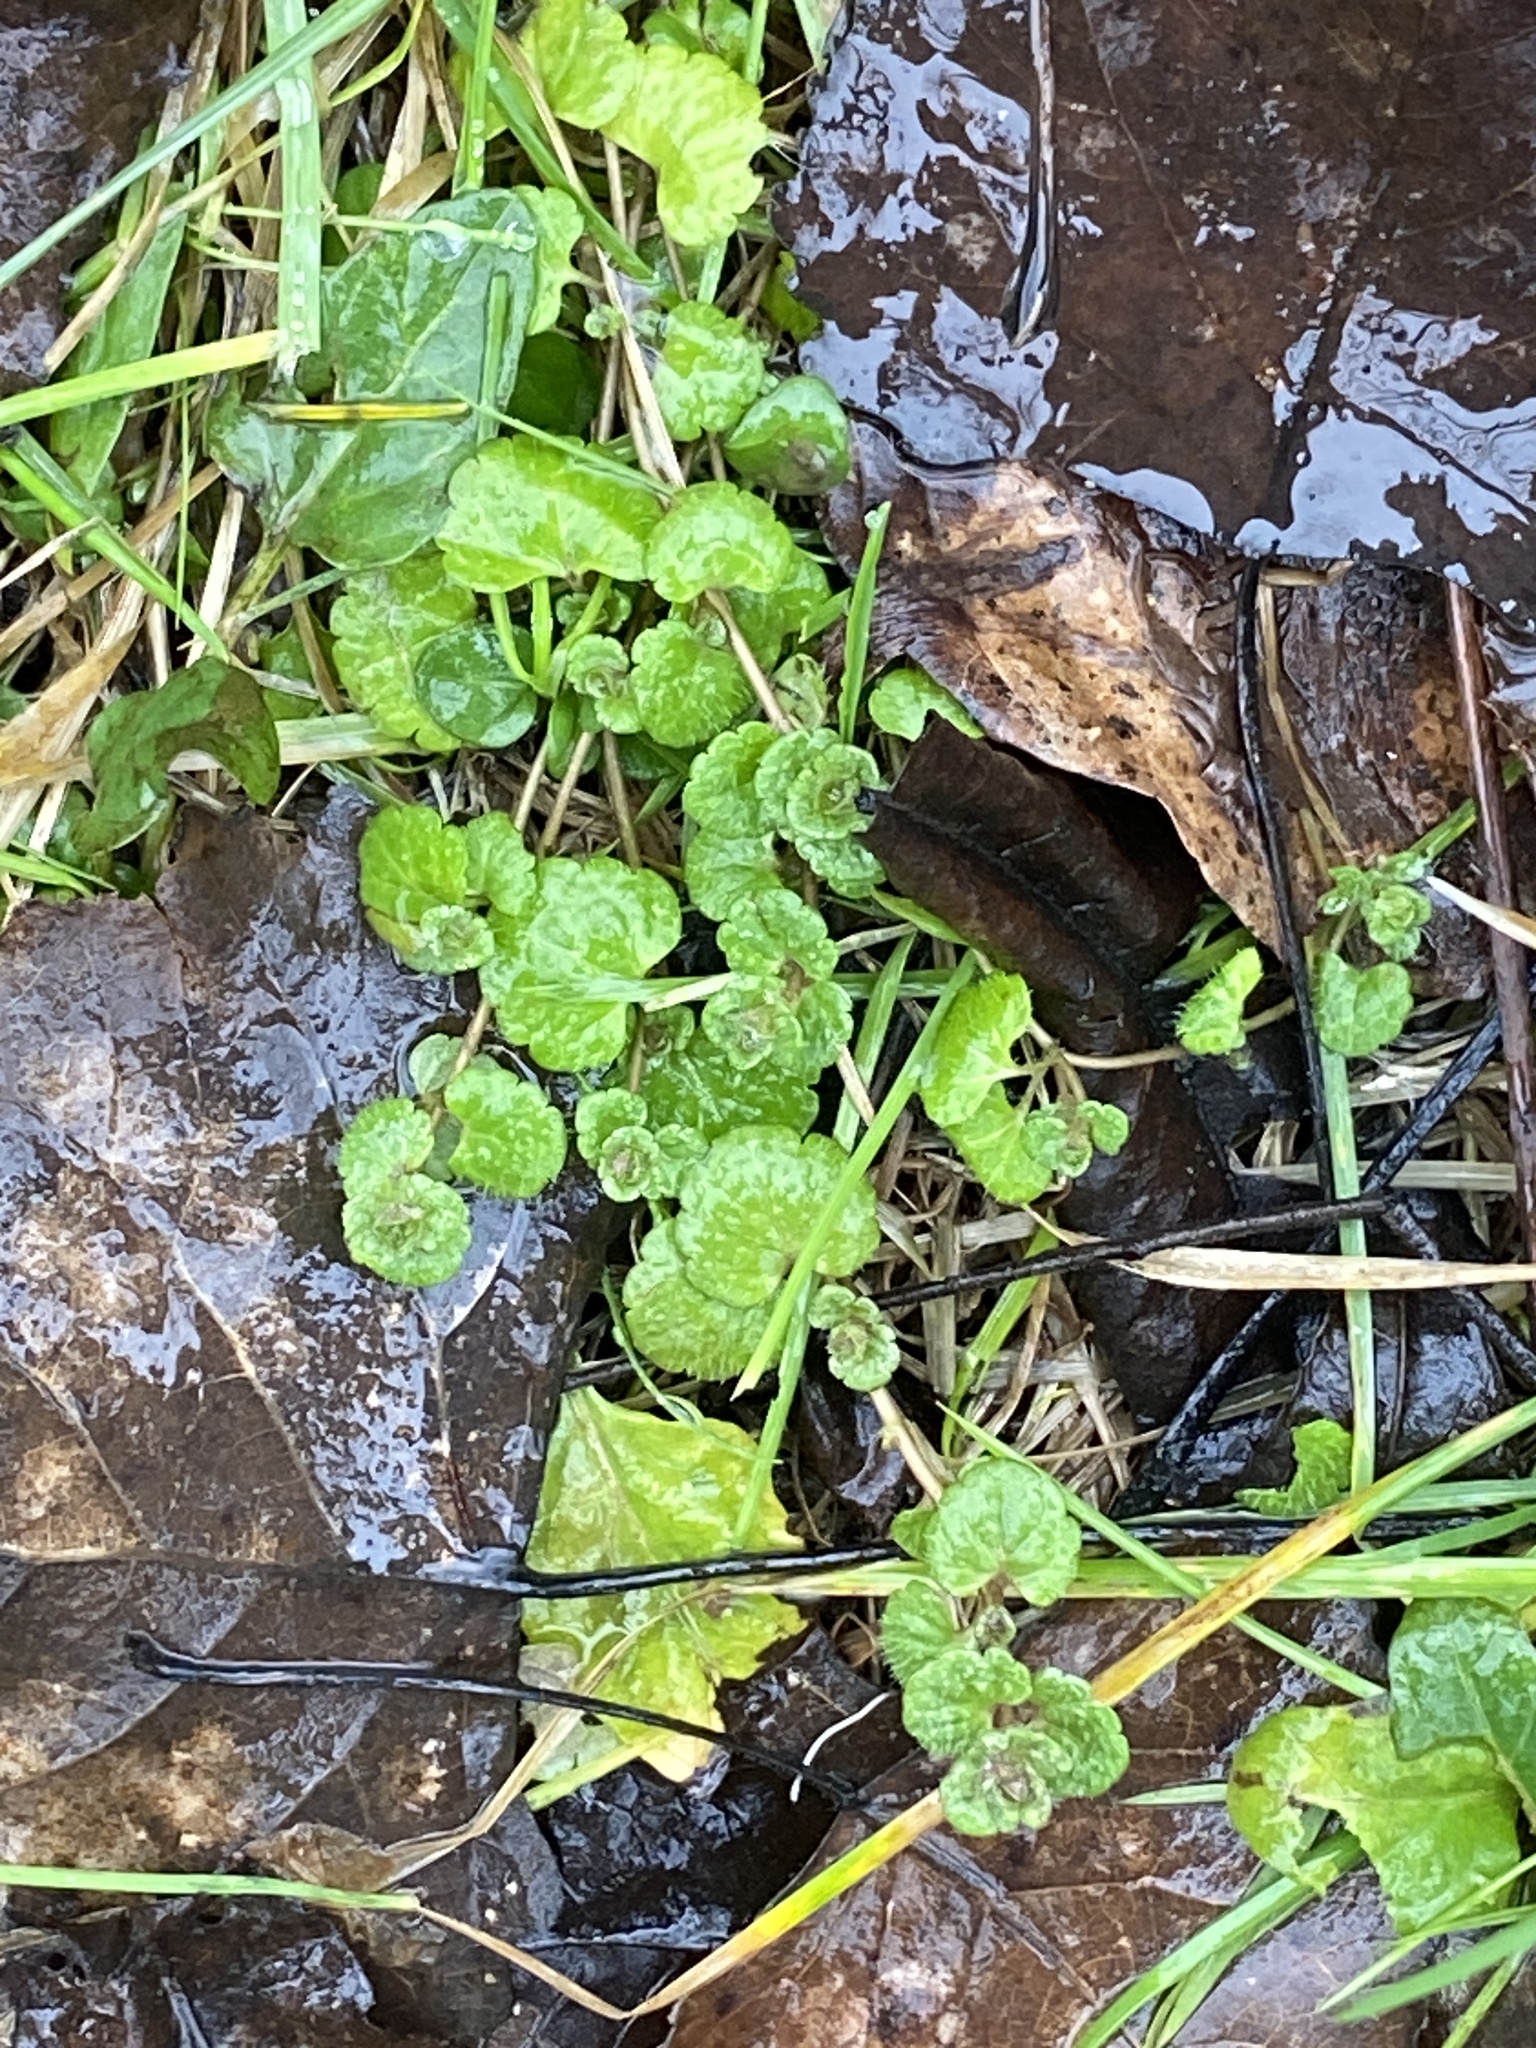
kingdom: Plantae
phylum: Tracheophyta
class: Magnoliopsida
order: Lamiales
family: Plantaginaceae
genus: Veronica
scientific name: Veronica filiformis
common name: Slender speedwell
